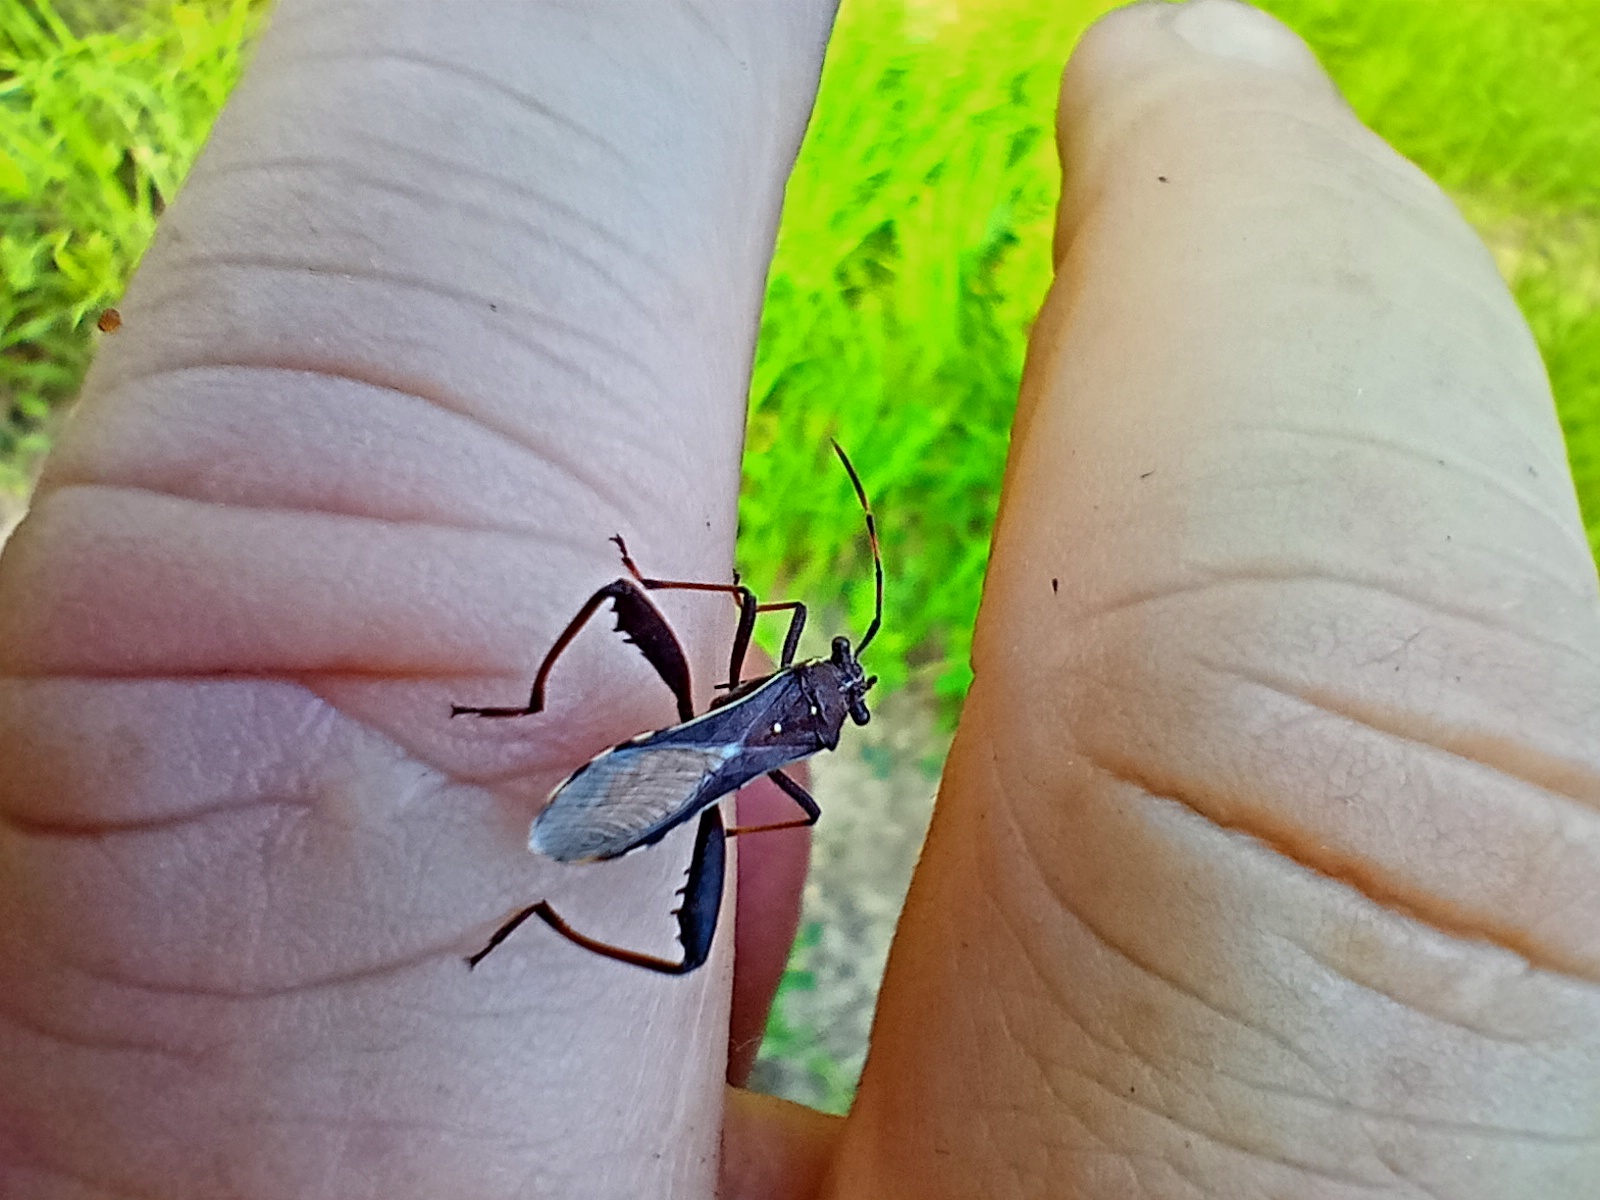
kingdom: Animalia
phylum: Arthropoda
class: Insecta
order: Hemiptera
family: Alydidae
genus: Camptopus
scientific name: Camptopus lateralis
